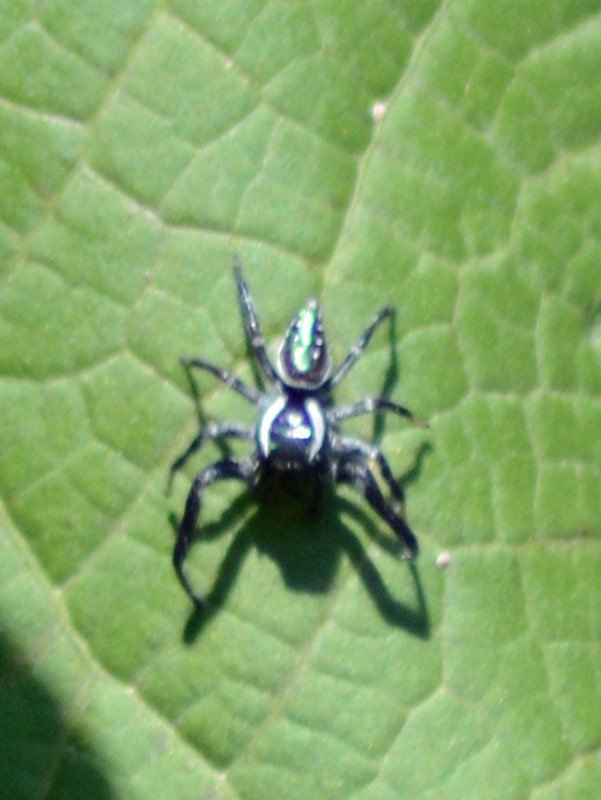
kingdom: Animalia
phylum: Arthropoda
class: Arachnida
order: Araneae
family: Salticidae
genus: Paraphidippus
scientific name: Paraphidippus aurantius
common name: Jumping spiders
